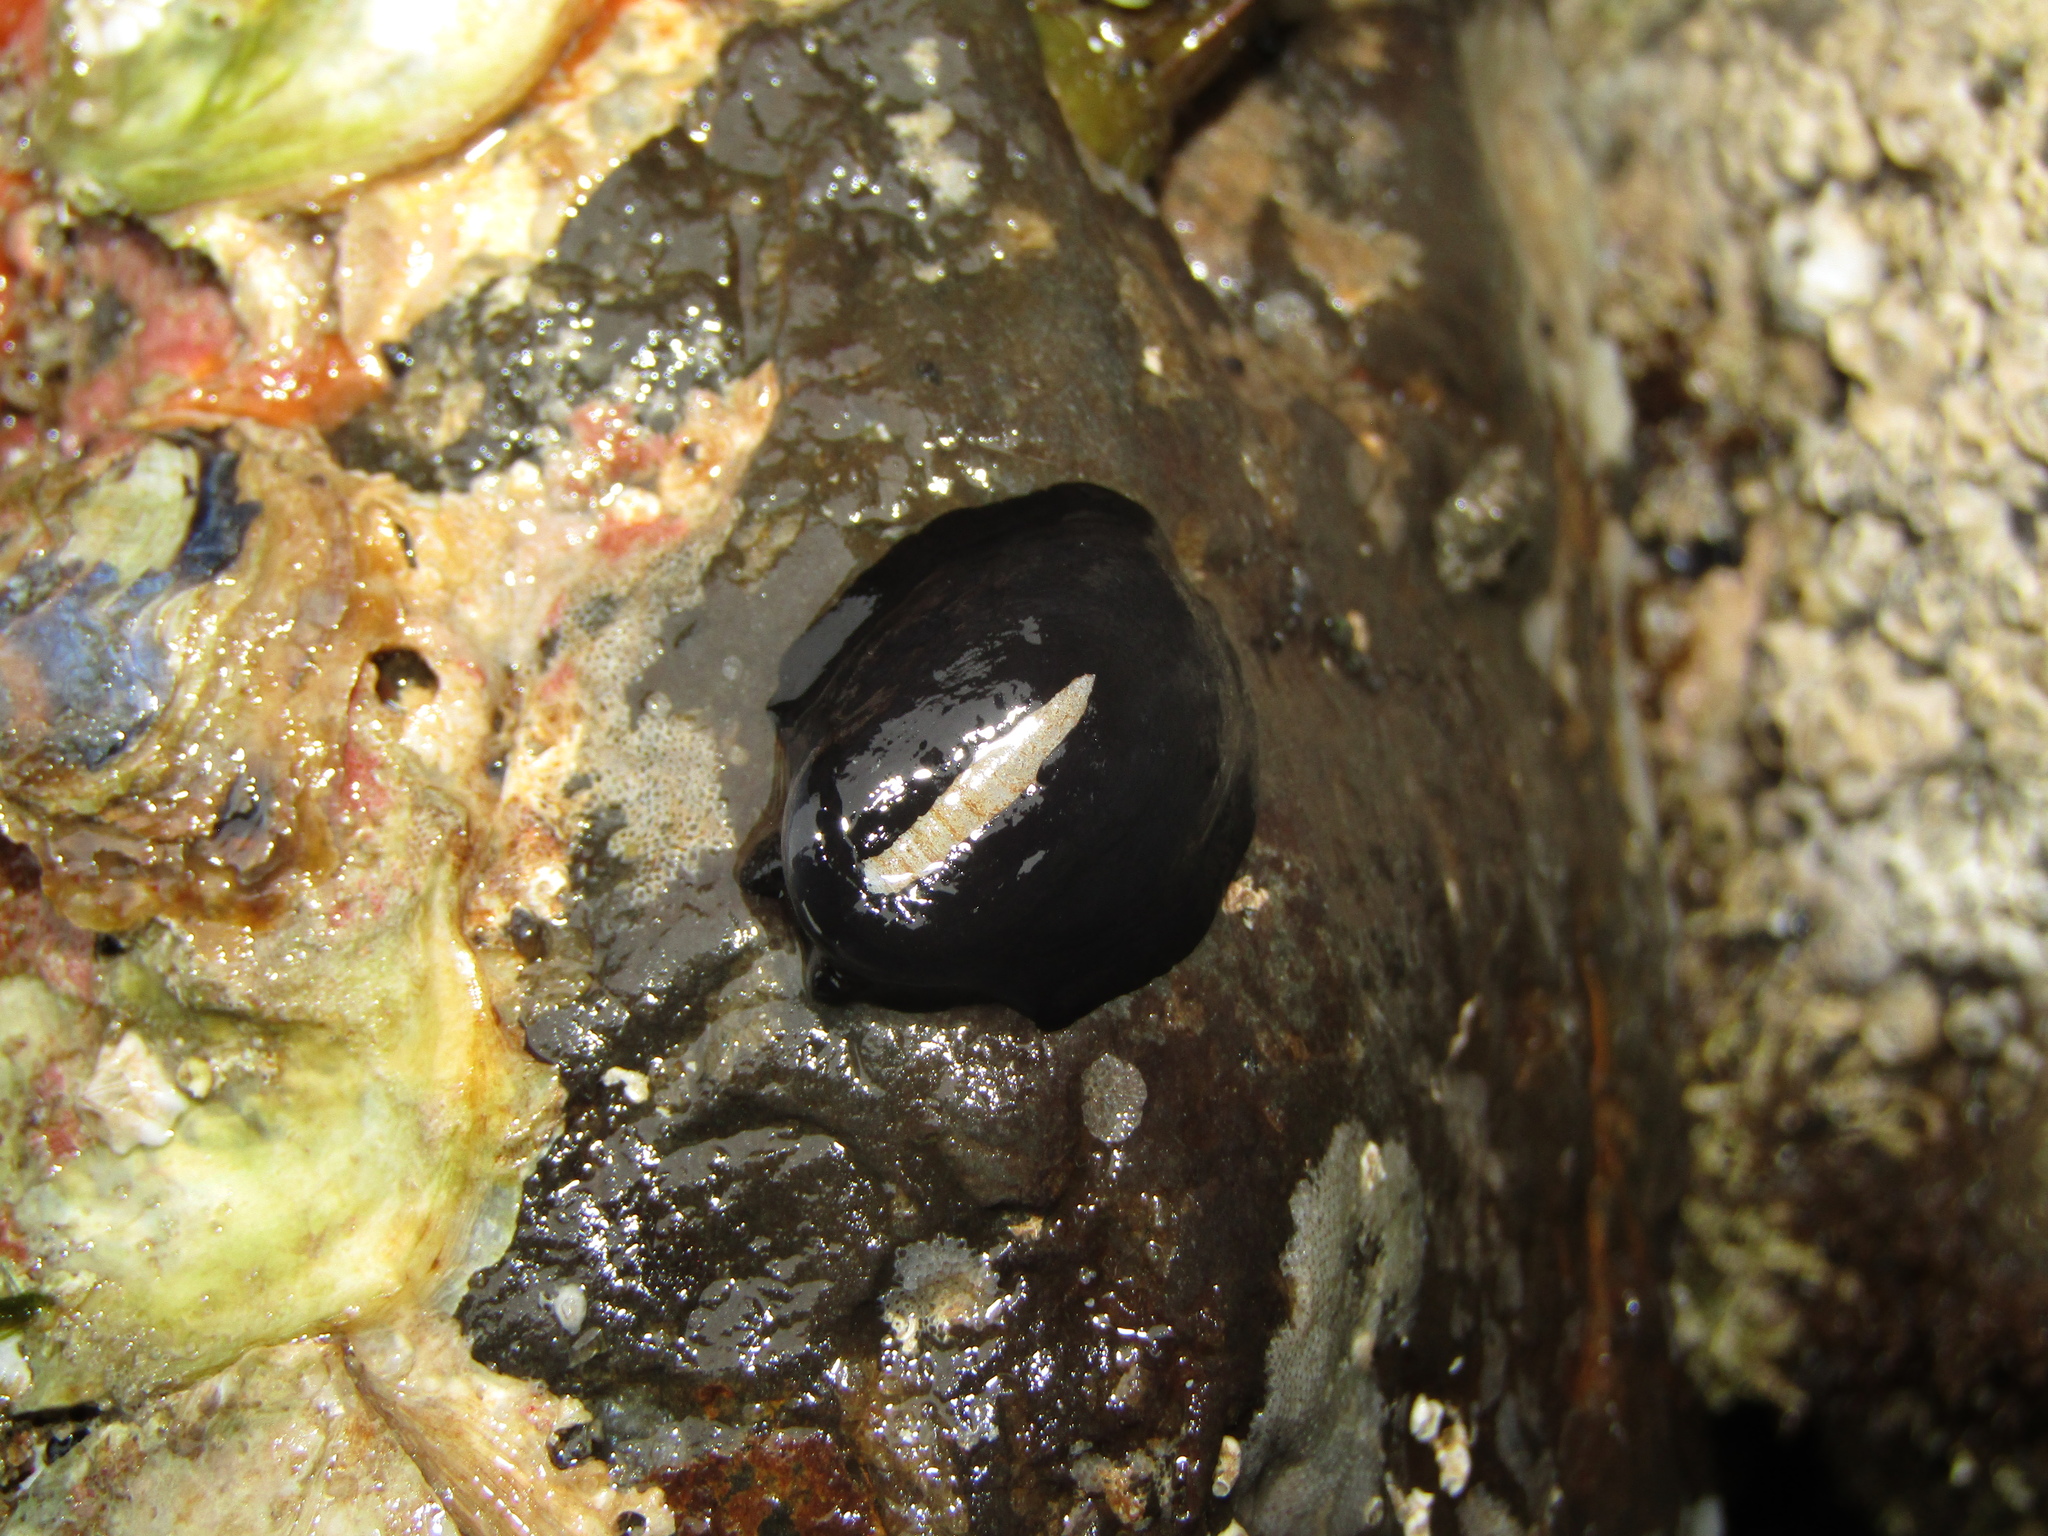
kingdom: Animalia
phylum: Mollusca
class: Gastropoda
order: Lepetellida
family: Fissurellidae
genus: Scutus
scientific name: Scutus breviculus
